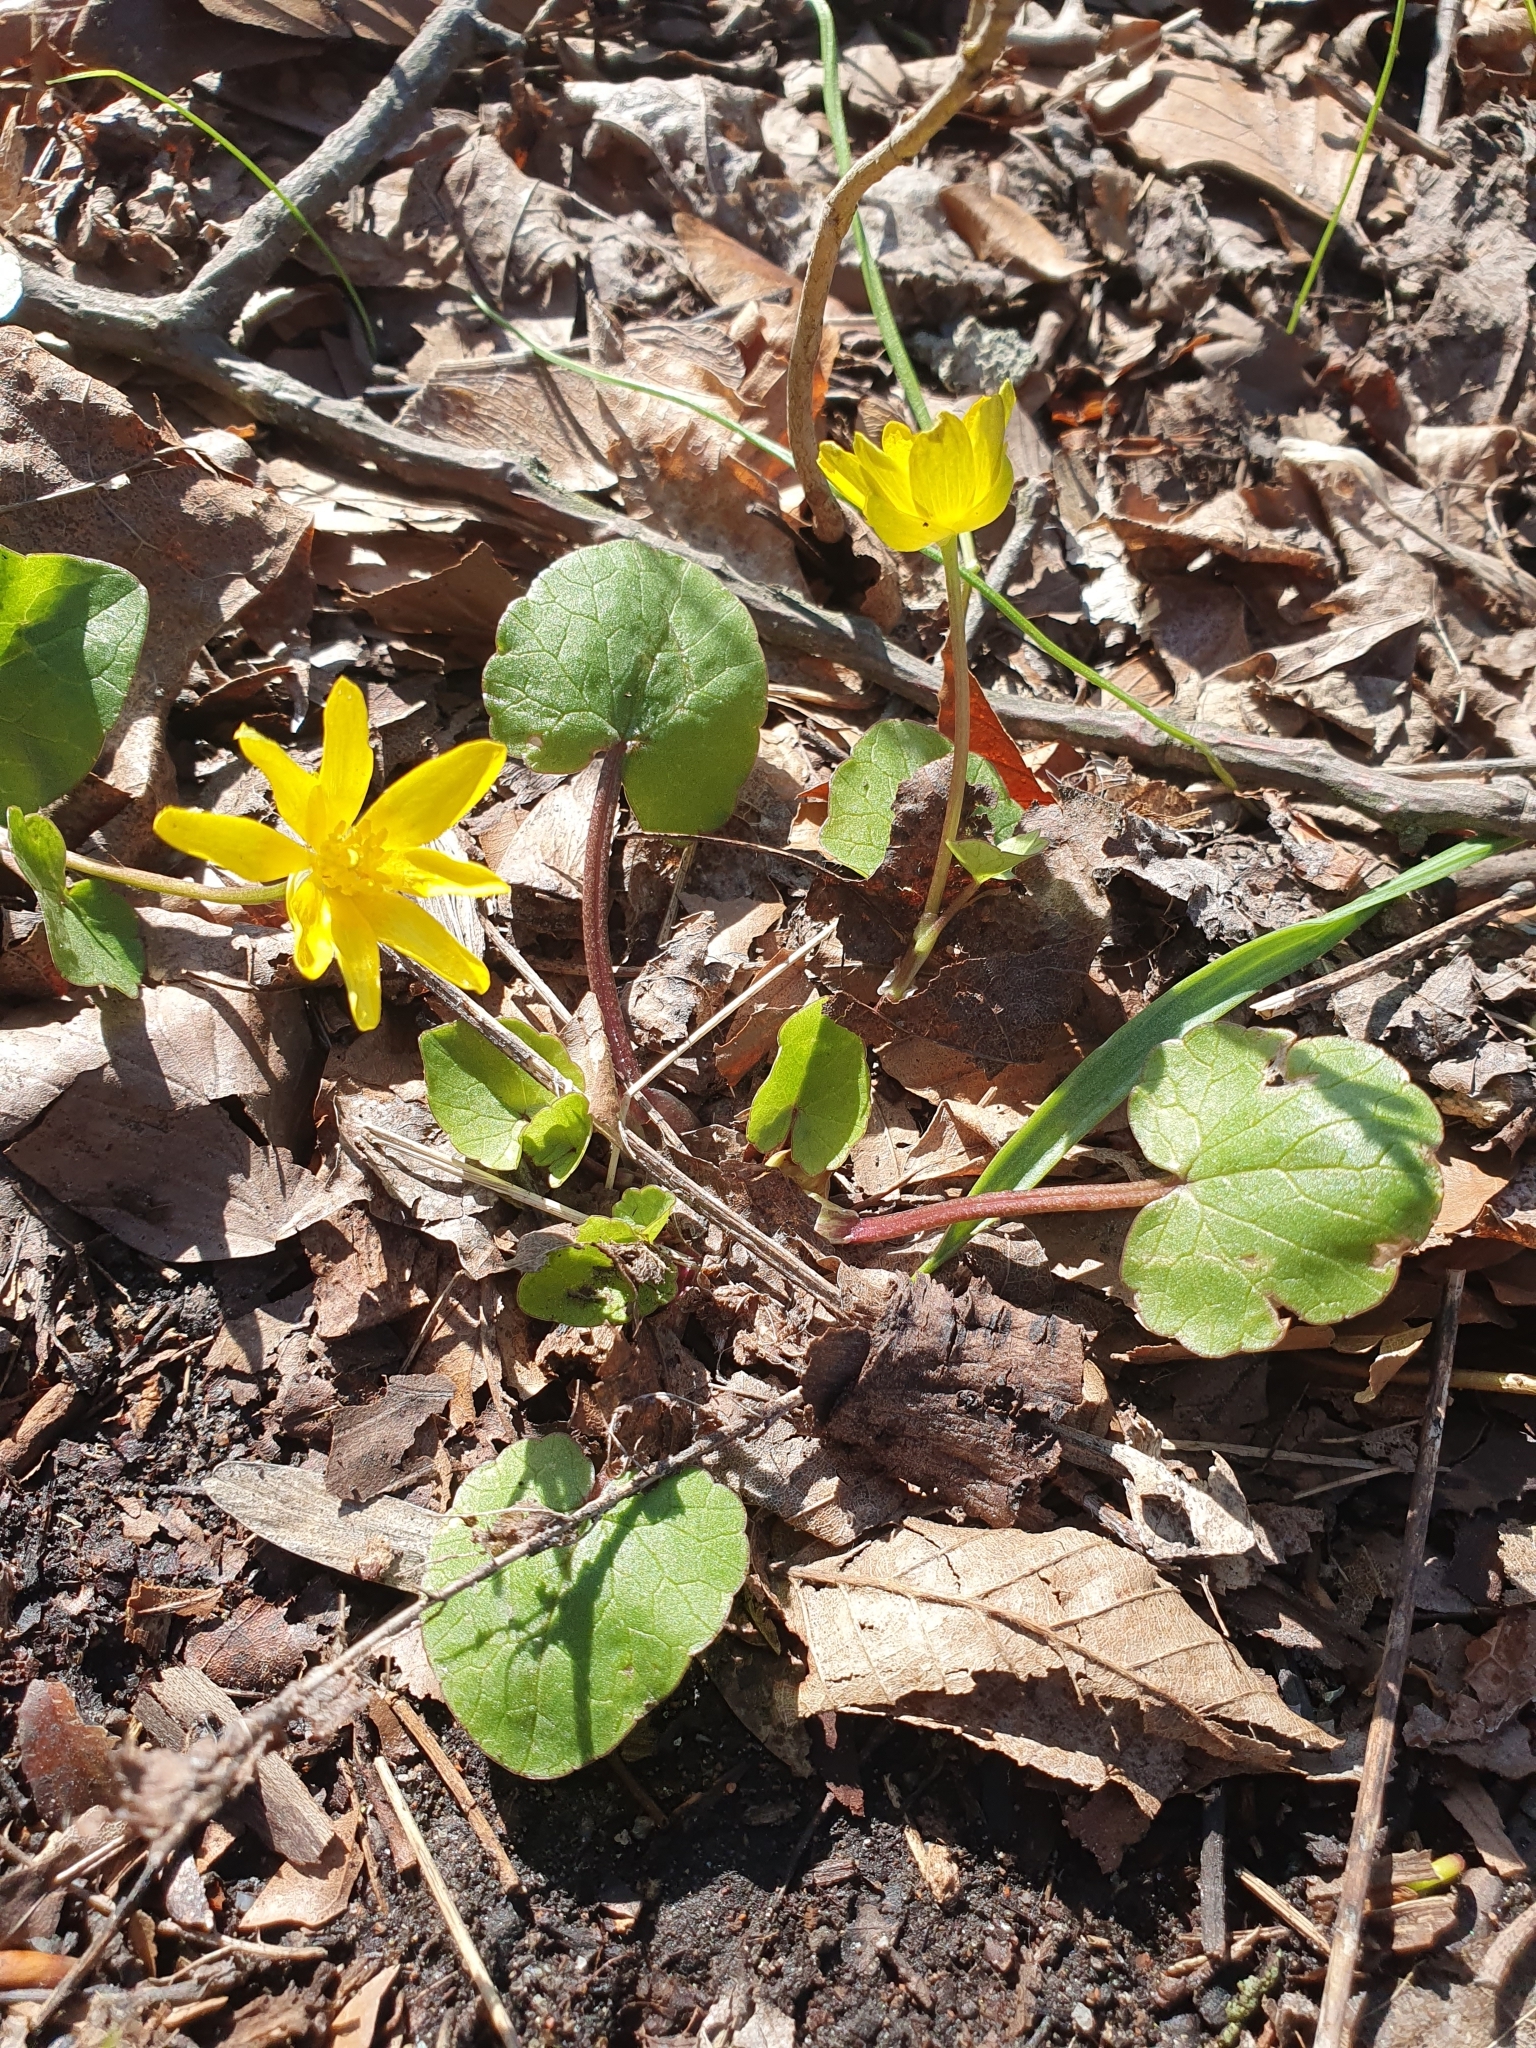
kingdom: Plantae
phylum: Tracheophyta
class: Magnoliopsida
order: Ranunculales
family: Ranunculaceae
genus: Ficaria
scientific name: Ficaria verna
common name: Lesser celandine
